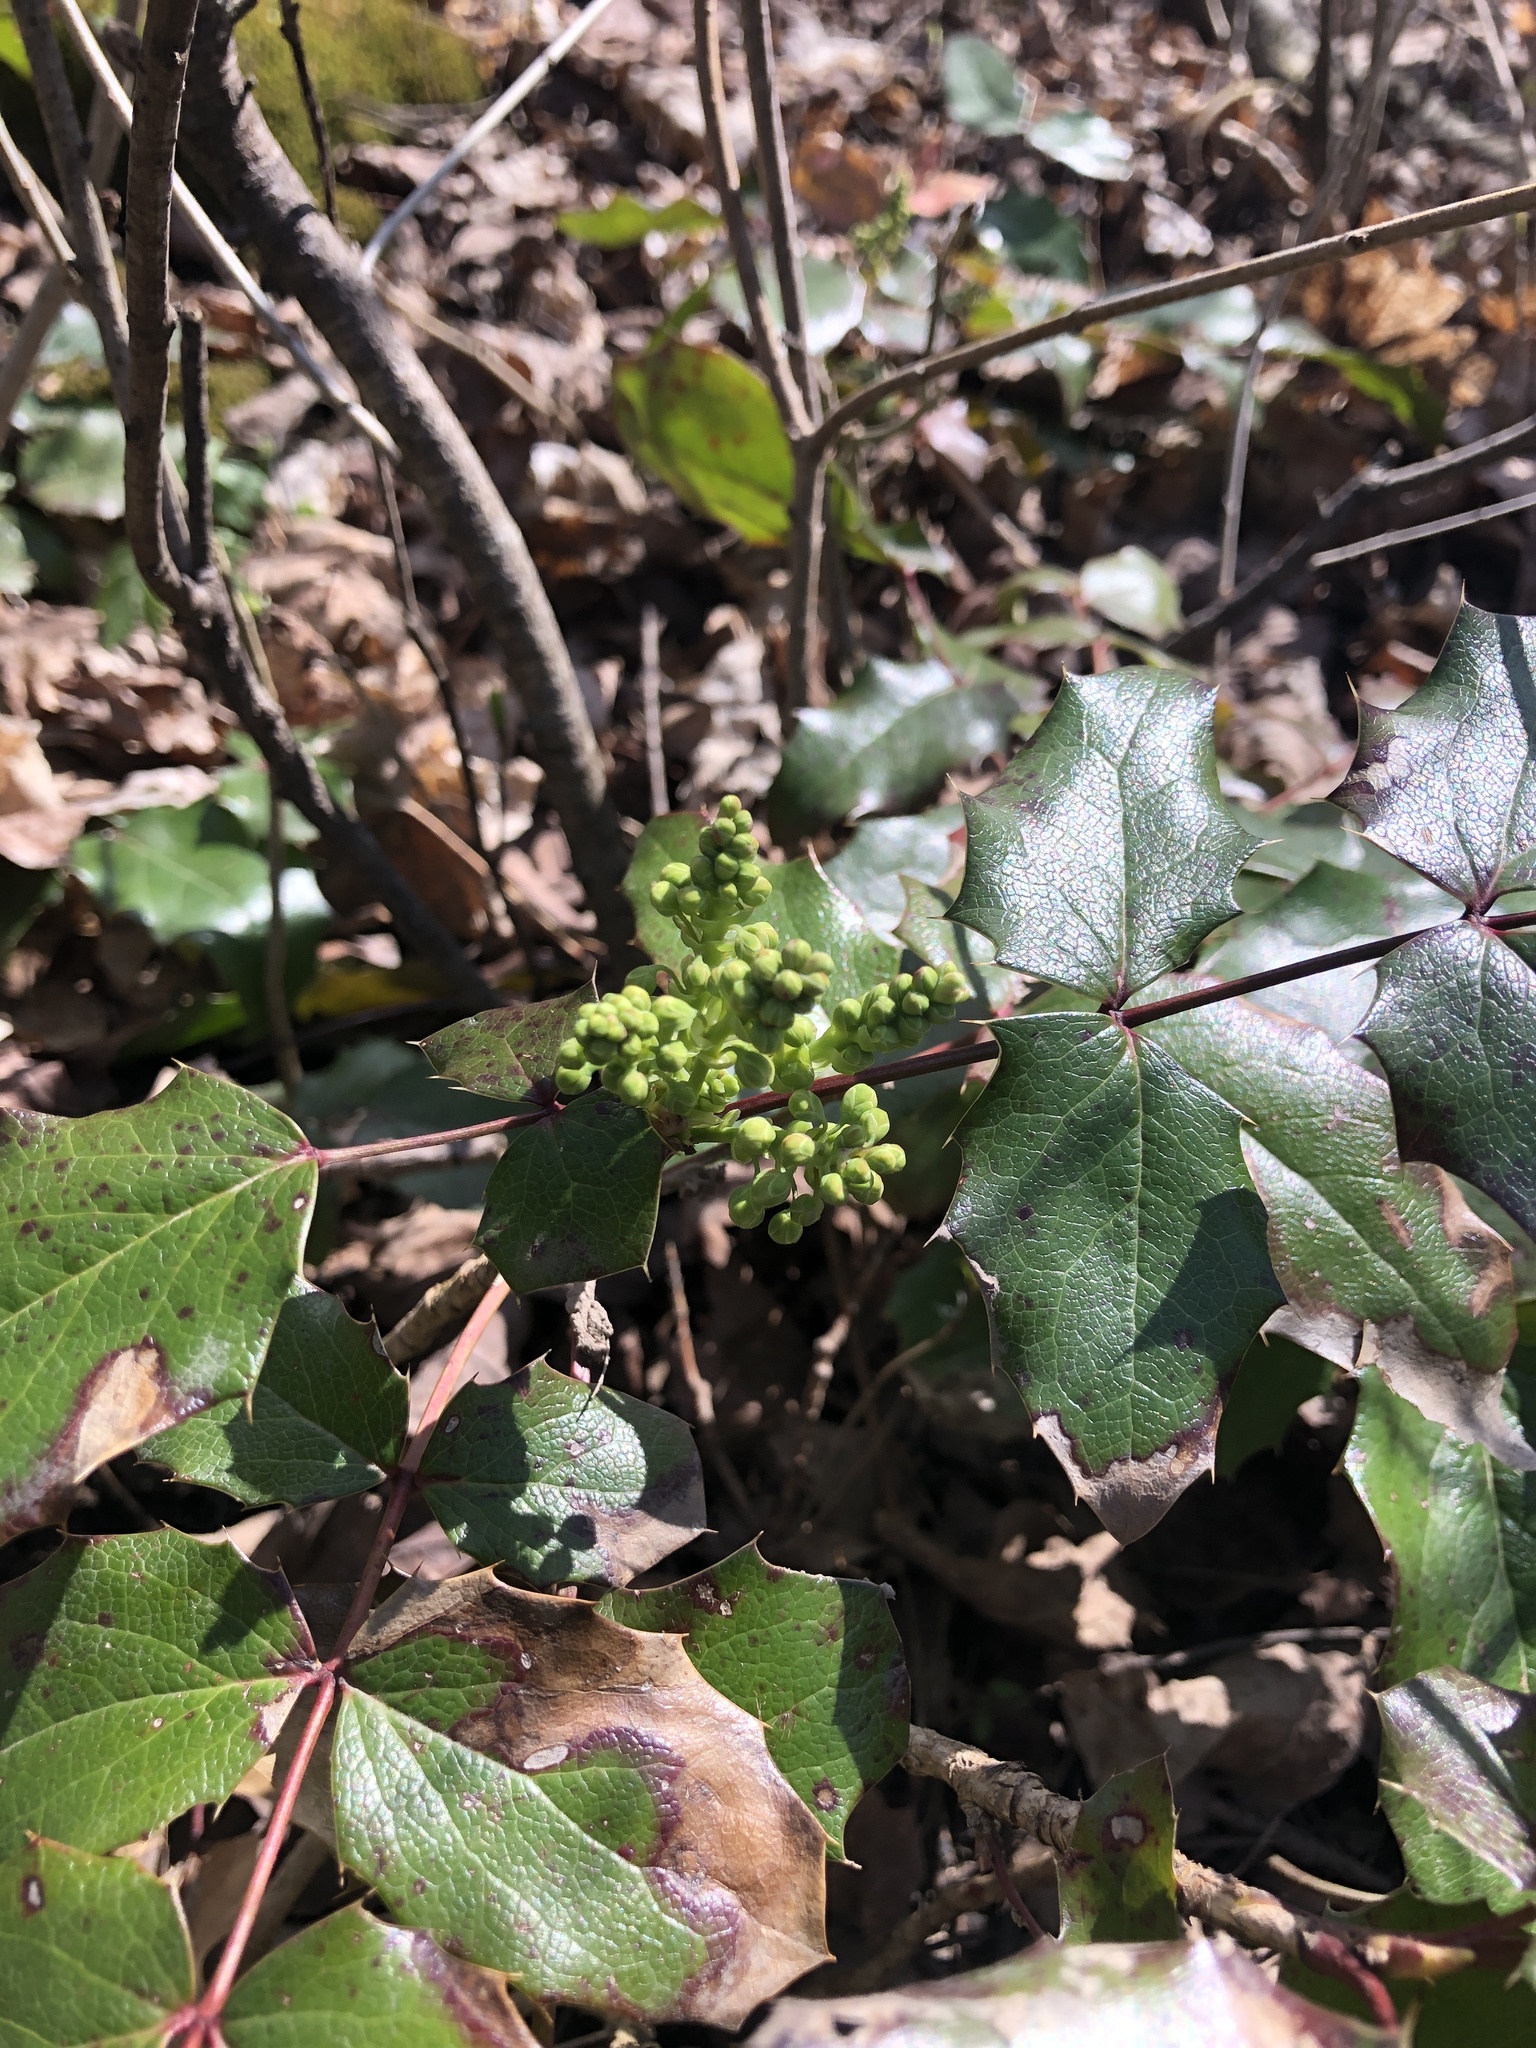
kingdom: Plantae
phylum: Tracheophyta
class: Magnoliopsida
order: Ranunculales
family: Berberidaceae
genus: Mahonia
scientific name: Mahonia aquifolium
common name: Oregon-grape
